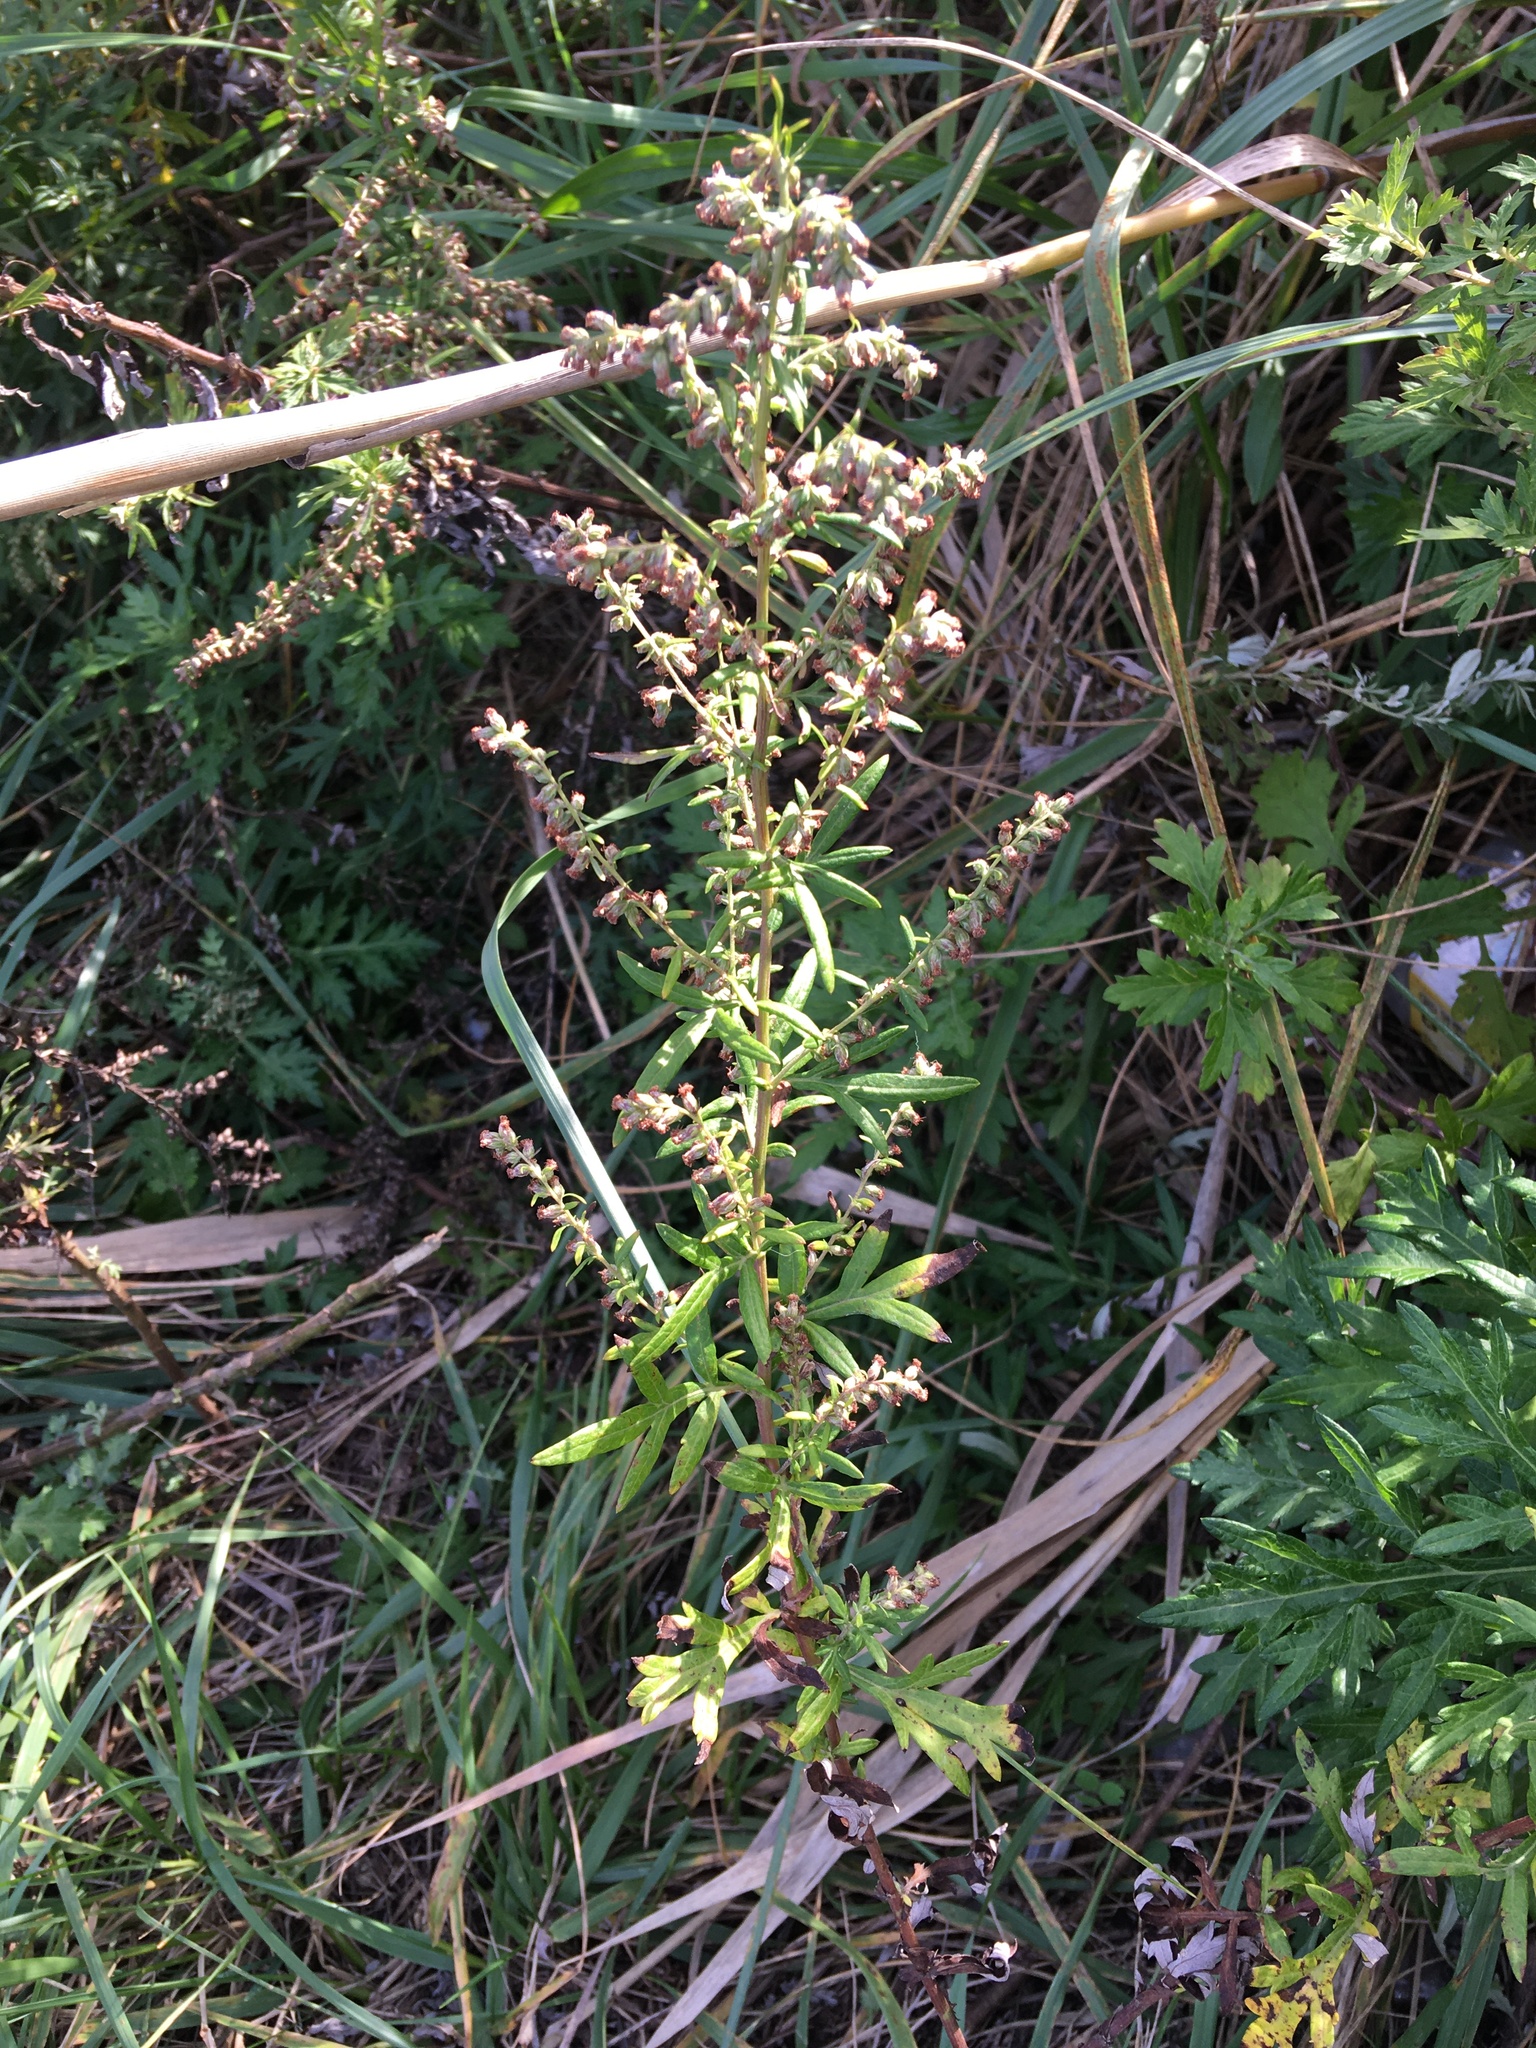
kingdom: Plantae
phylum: Tracheophyta
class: Magnoliopsida
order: Asterales
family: Asteraceae
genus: Artemisia
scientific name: Artemisia vulgaris
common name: Mugwort
